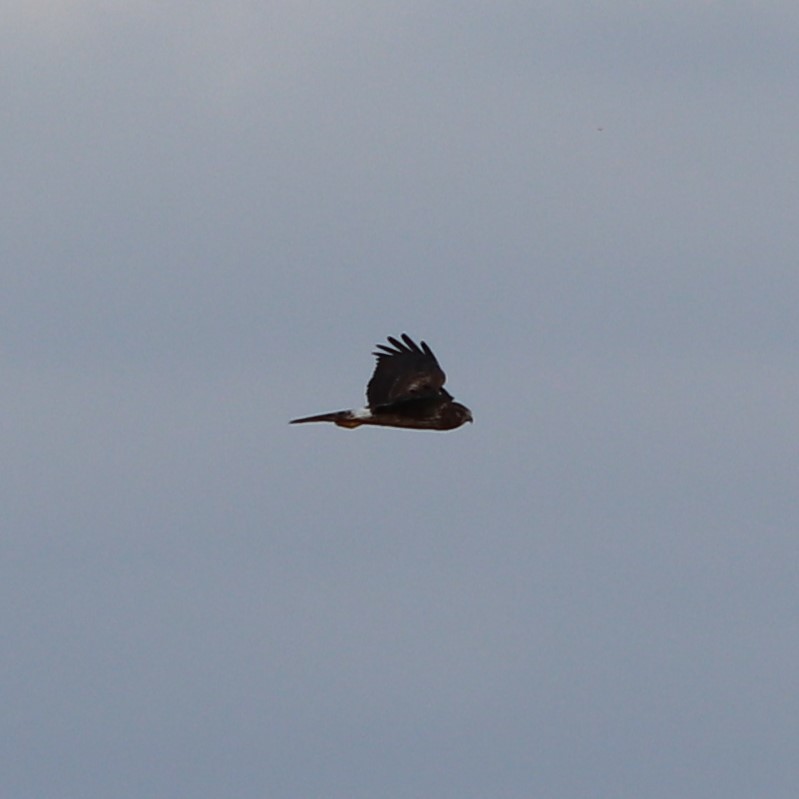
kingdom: Animalia
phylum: Chordata
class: Aves
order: Accipitriformes
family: Accipitridae
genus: Circus
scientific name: Circus cyaneus
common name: Hen harrier
